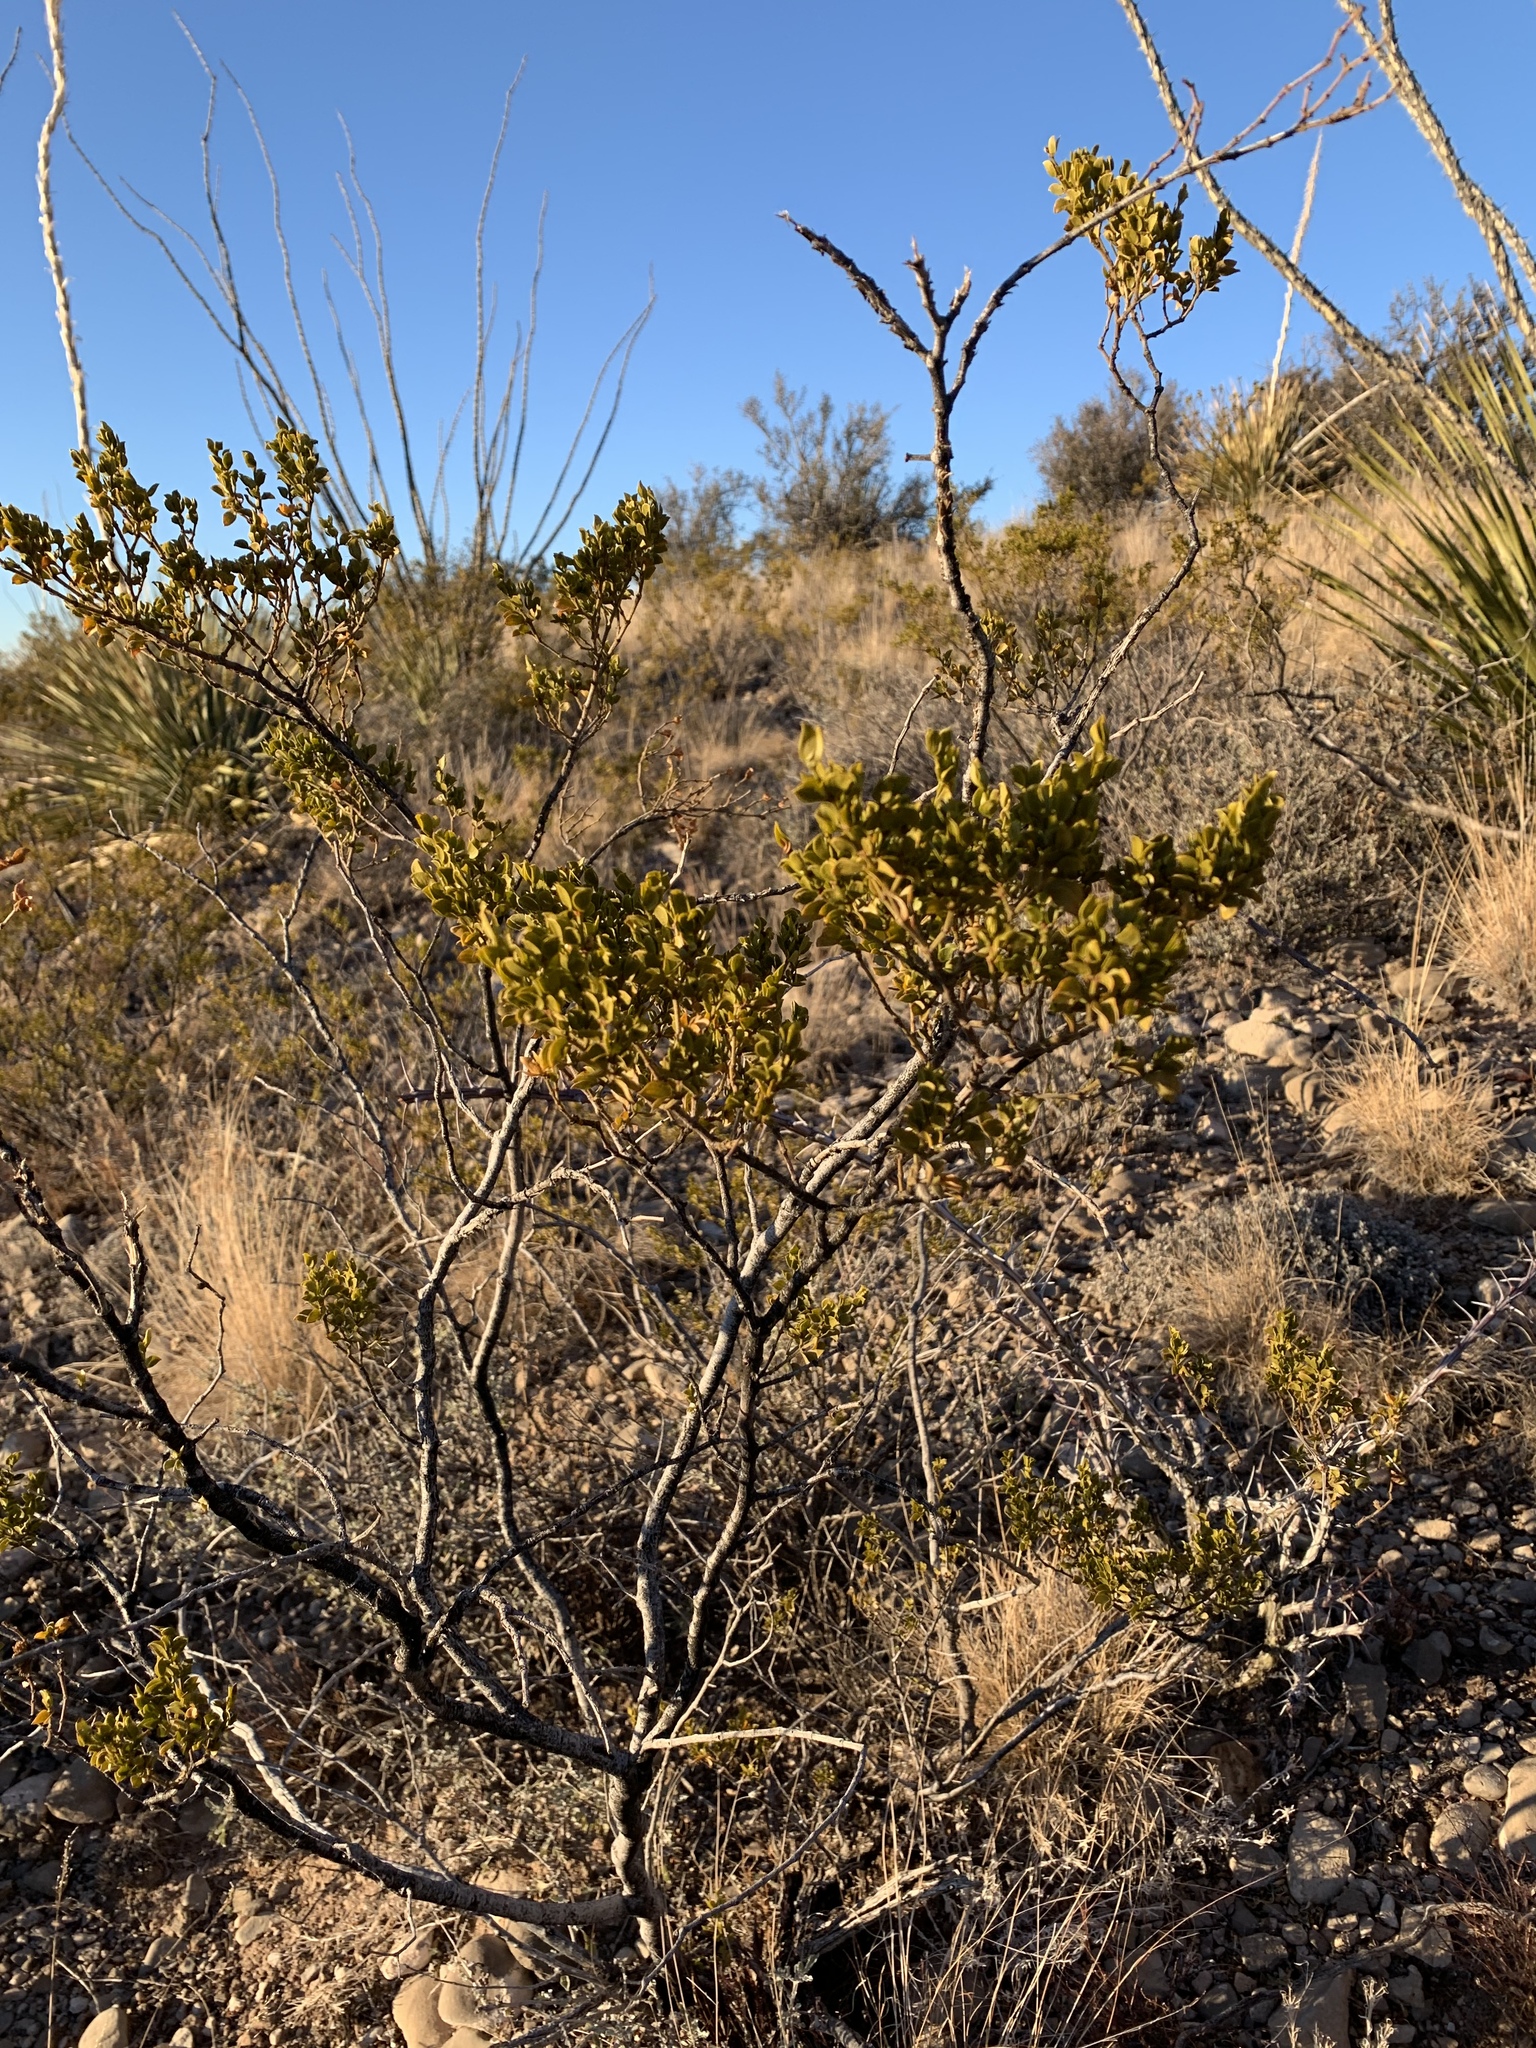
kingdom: Plantae
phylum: Tracheophyta
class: Magnoliopsida
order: Zygophyllales
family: Zygophyllaceae
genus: Larrea
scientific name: Larrea tridentata
